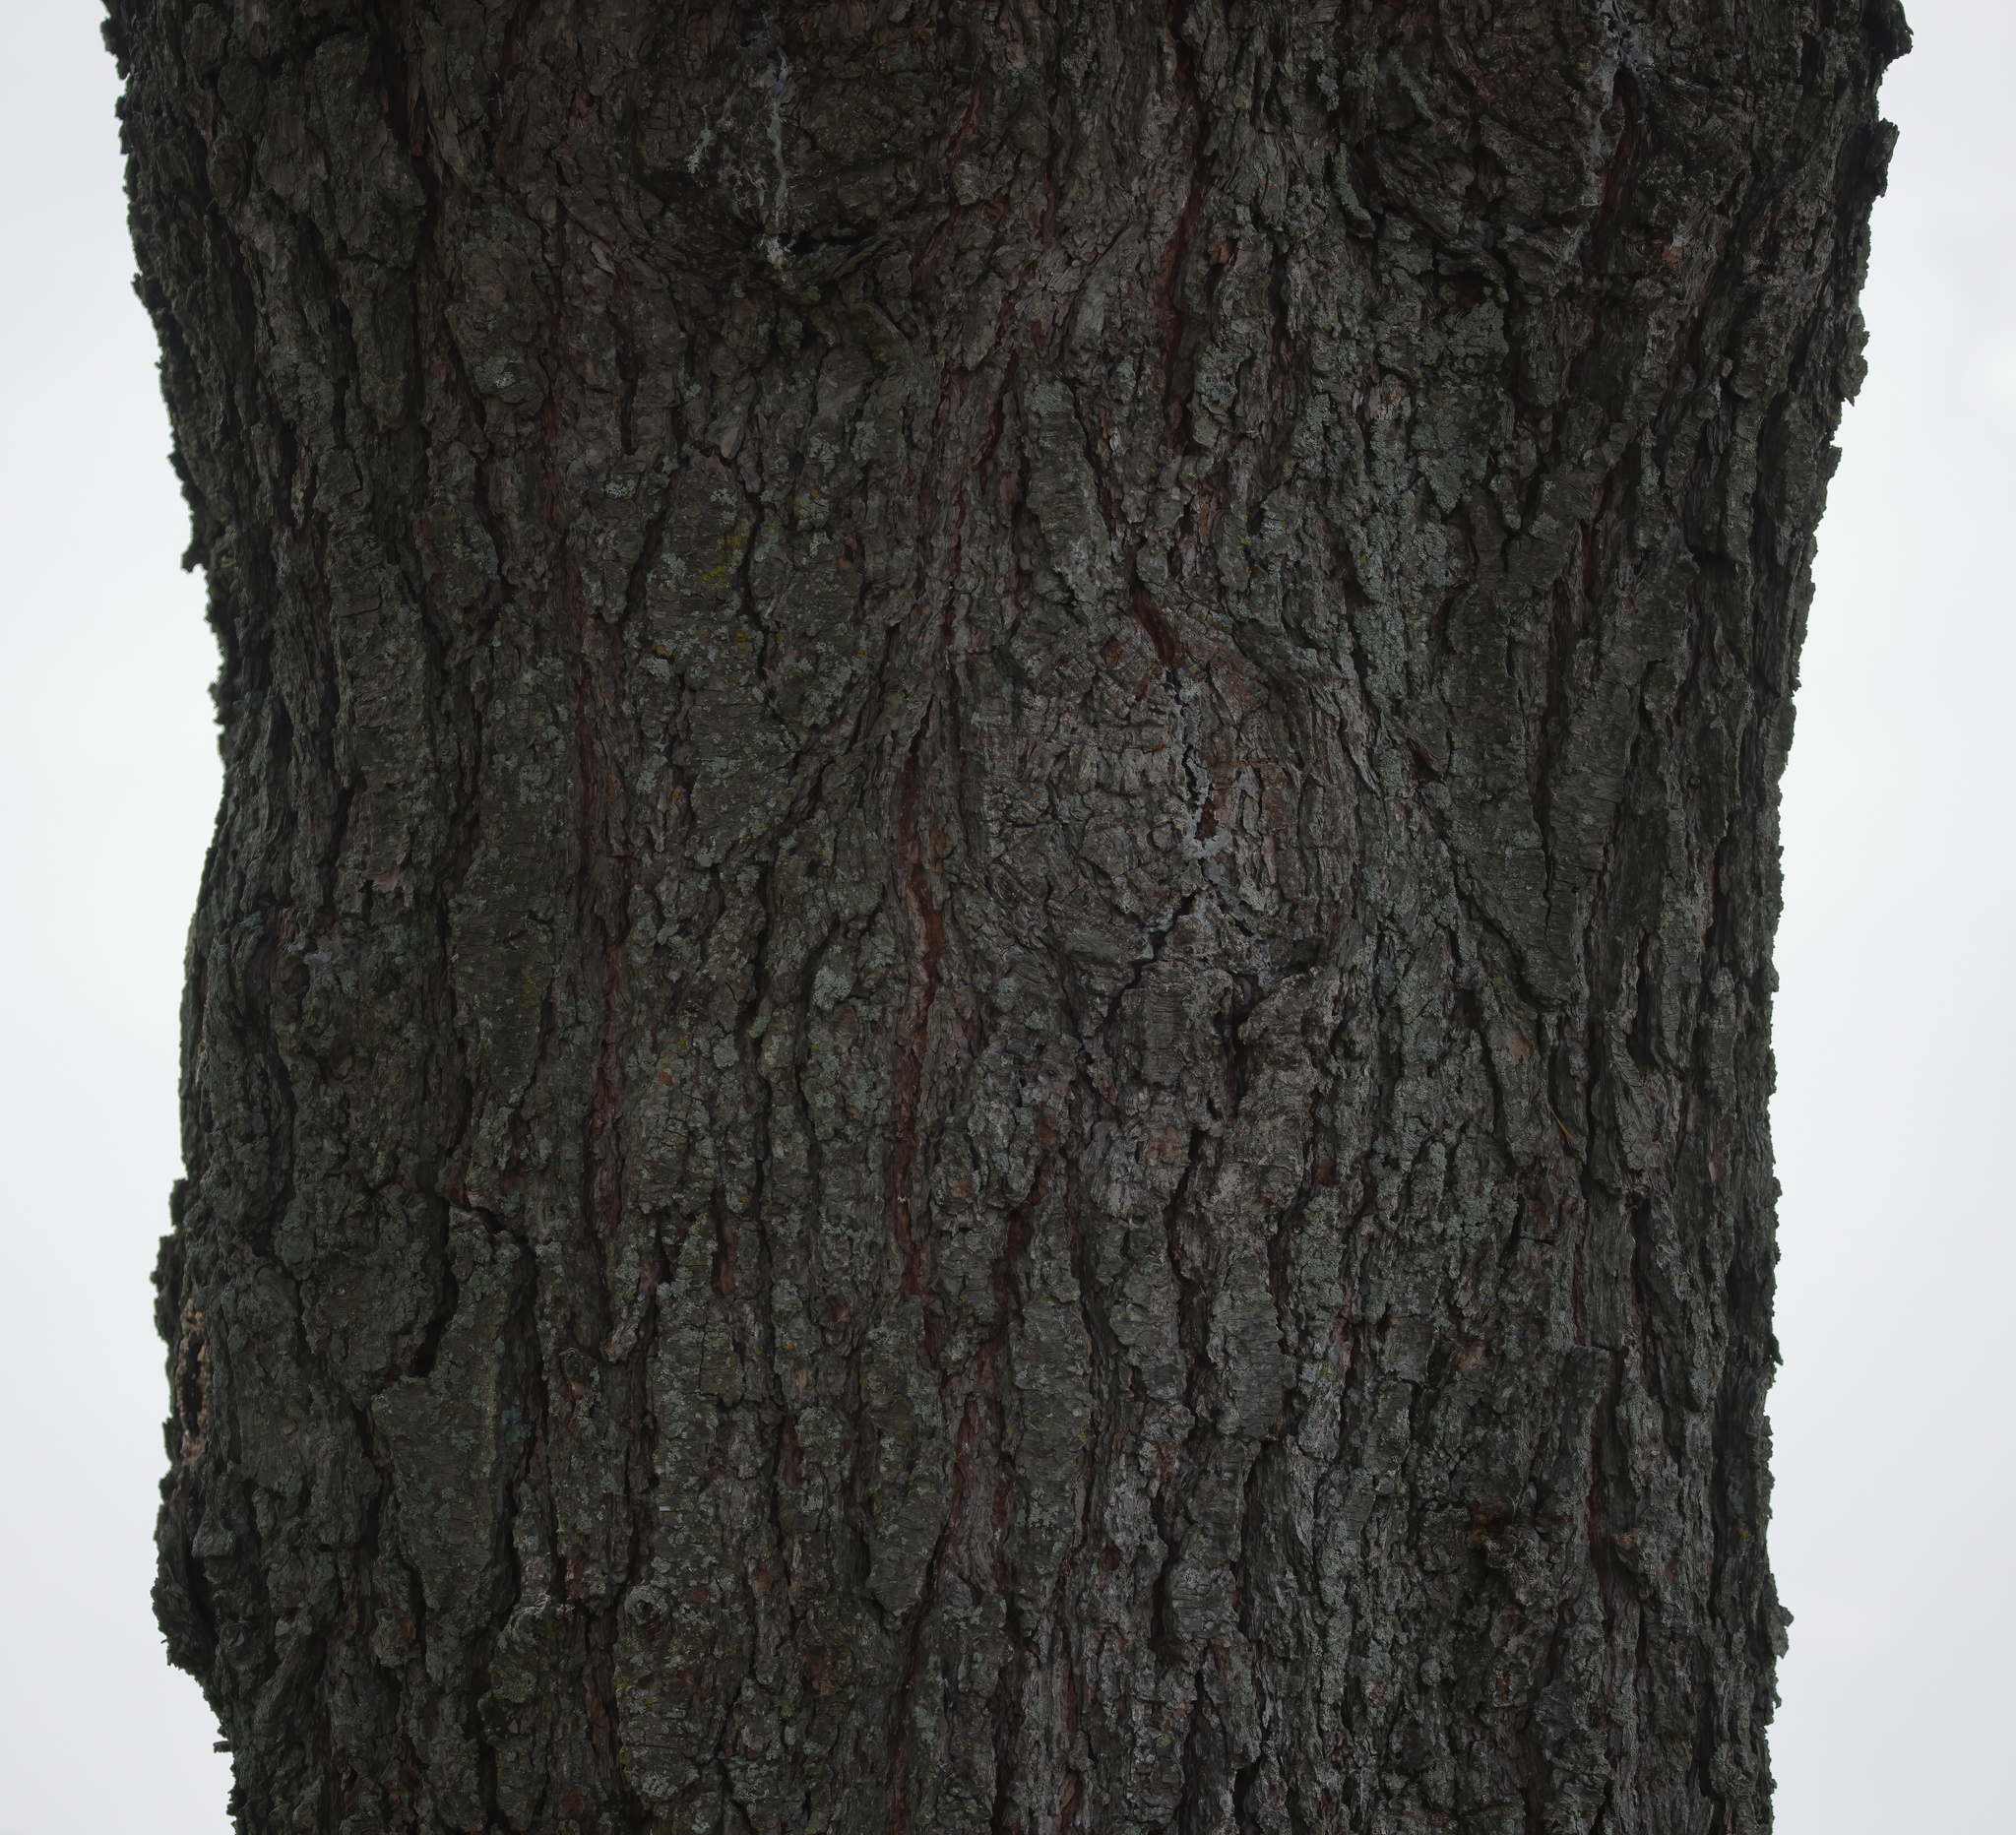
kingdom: Plantae
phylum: Tracheophyta
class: Pinopsida
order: Pinales
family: Pinaceae
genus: Pinus
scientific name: Pinus strobus
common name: Weymouth pine
